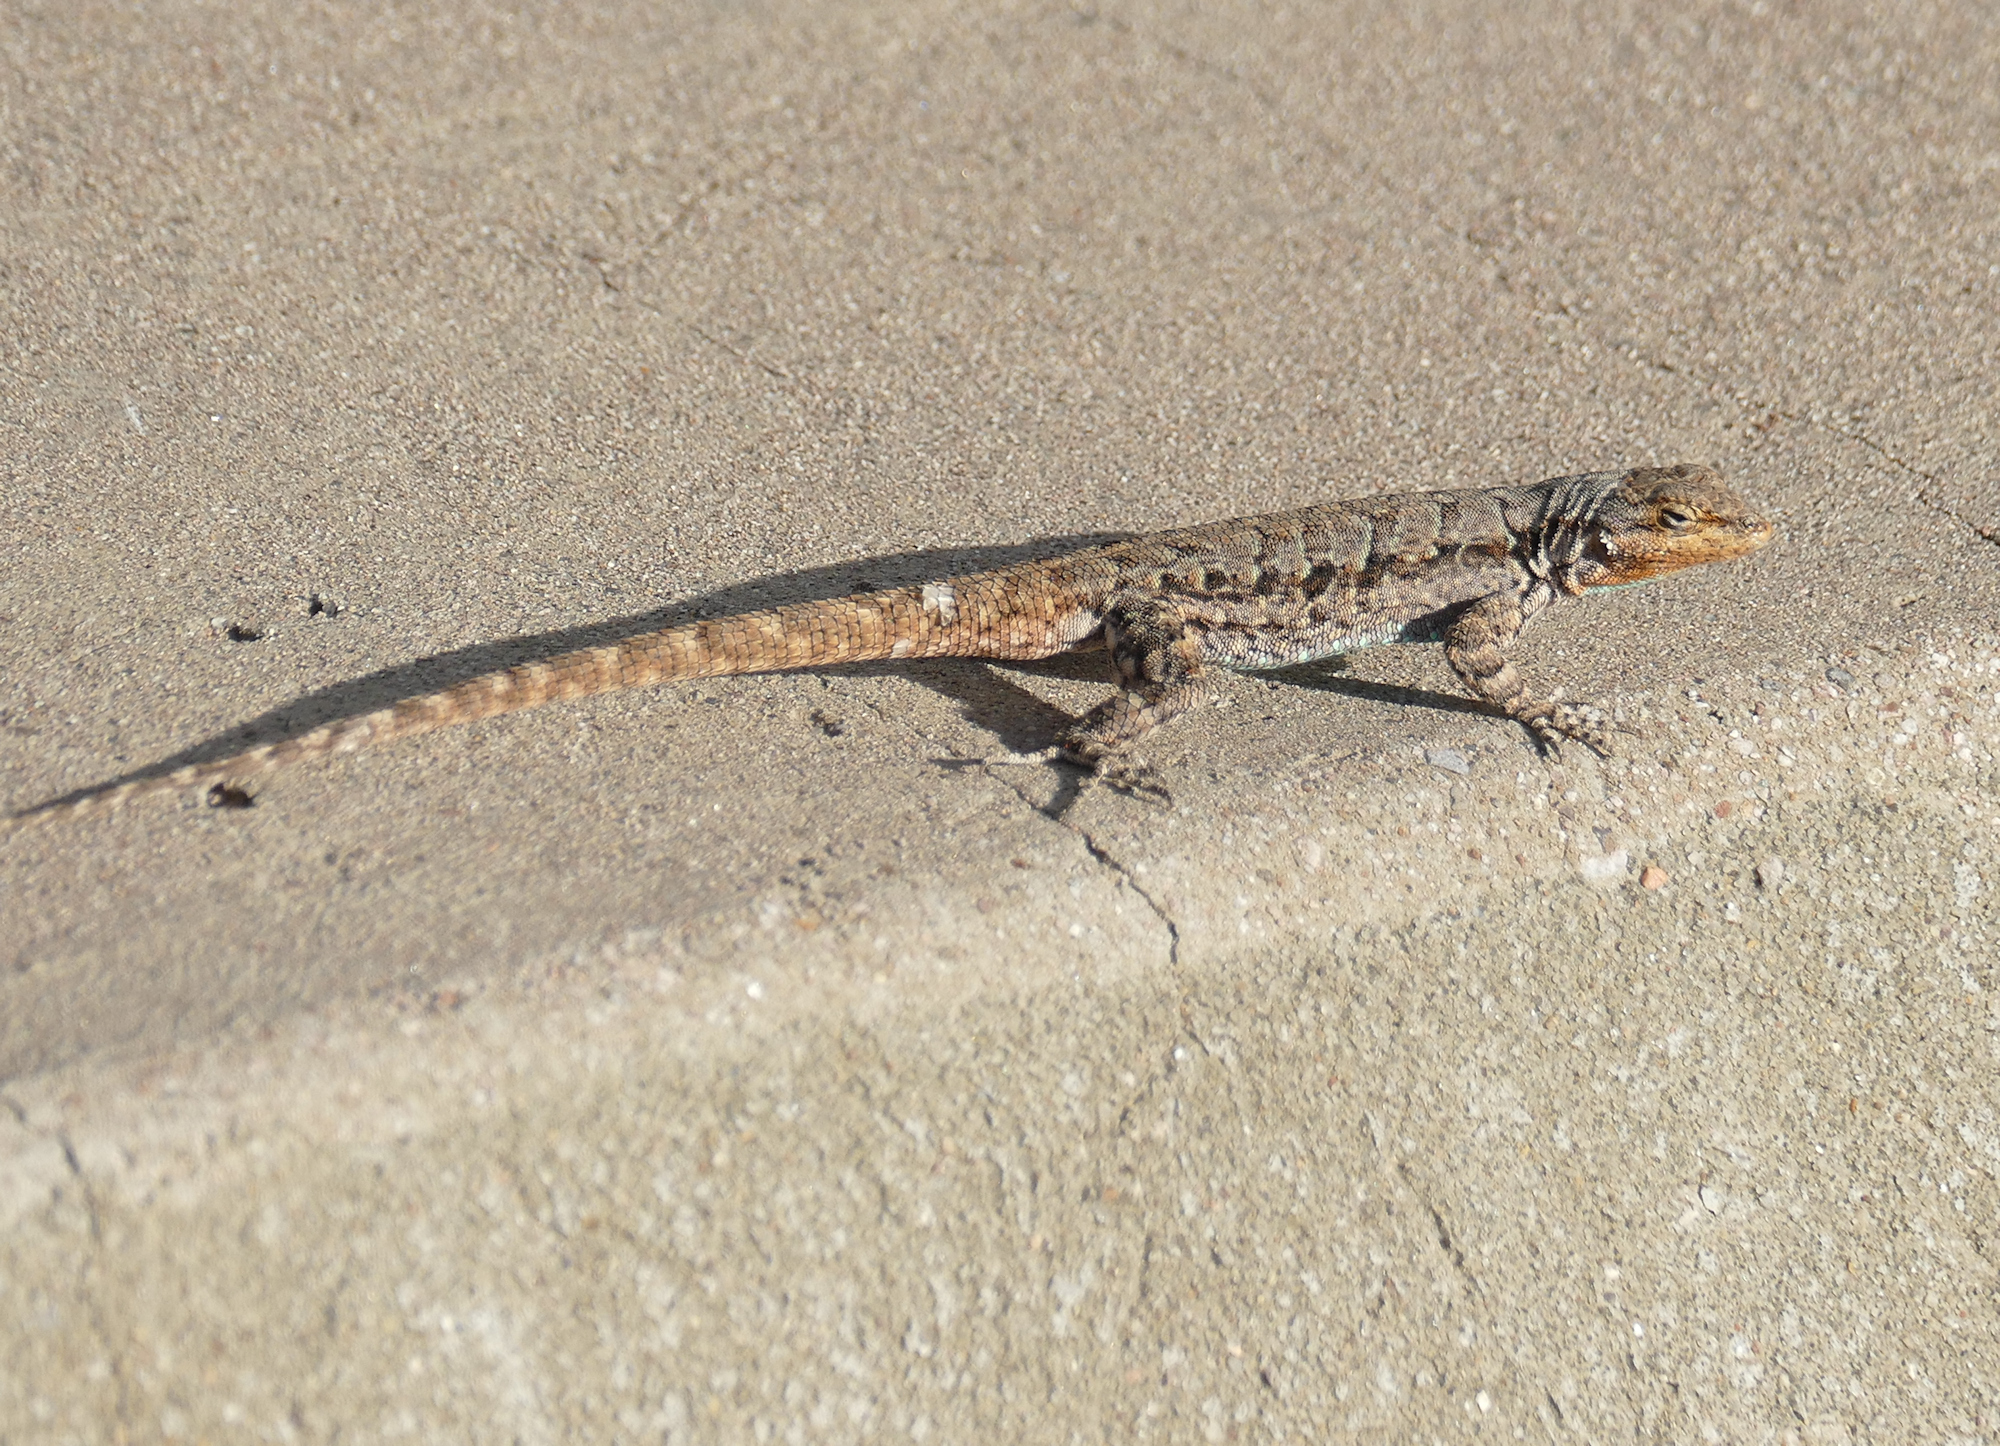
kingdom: Animalia
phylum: Chordata
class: Squamata
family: Phrynosomatidae
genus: Urosaurus
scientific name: Urosaurus ornatus
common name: Ornate tree lizard
